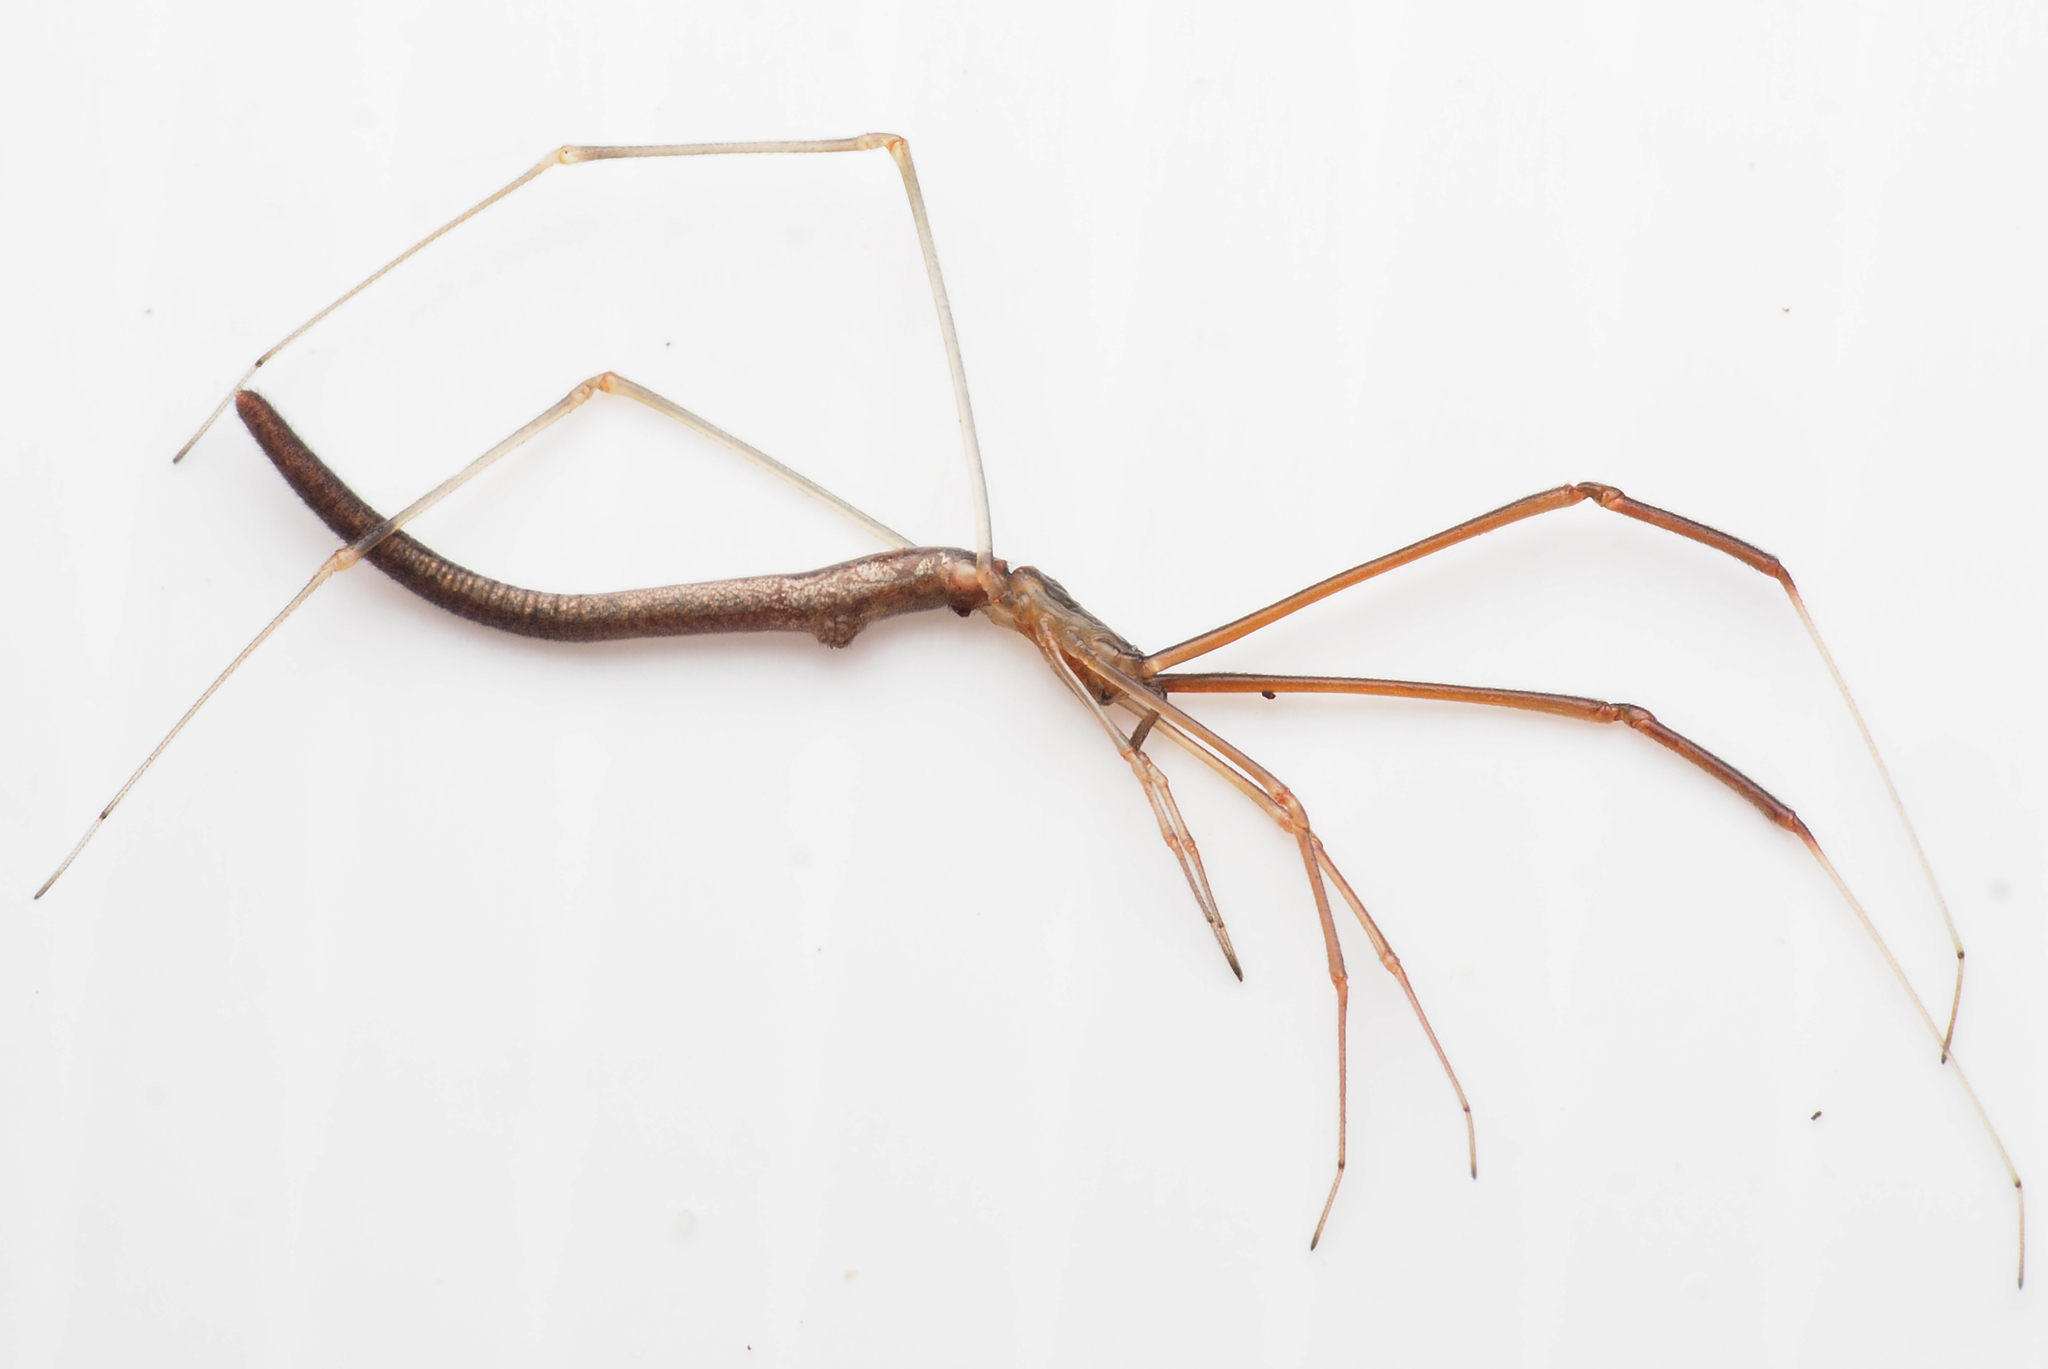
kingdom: Animalia
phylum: Arthropoda
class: Arachnida
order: Araneae
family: Theridiidae
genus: Ariamnes
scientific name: Ariamnes colubrinus
